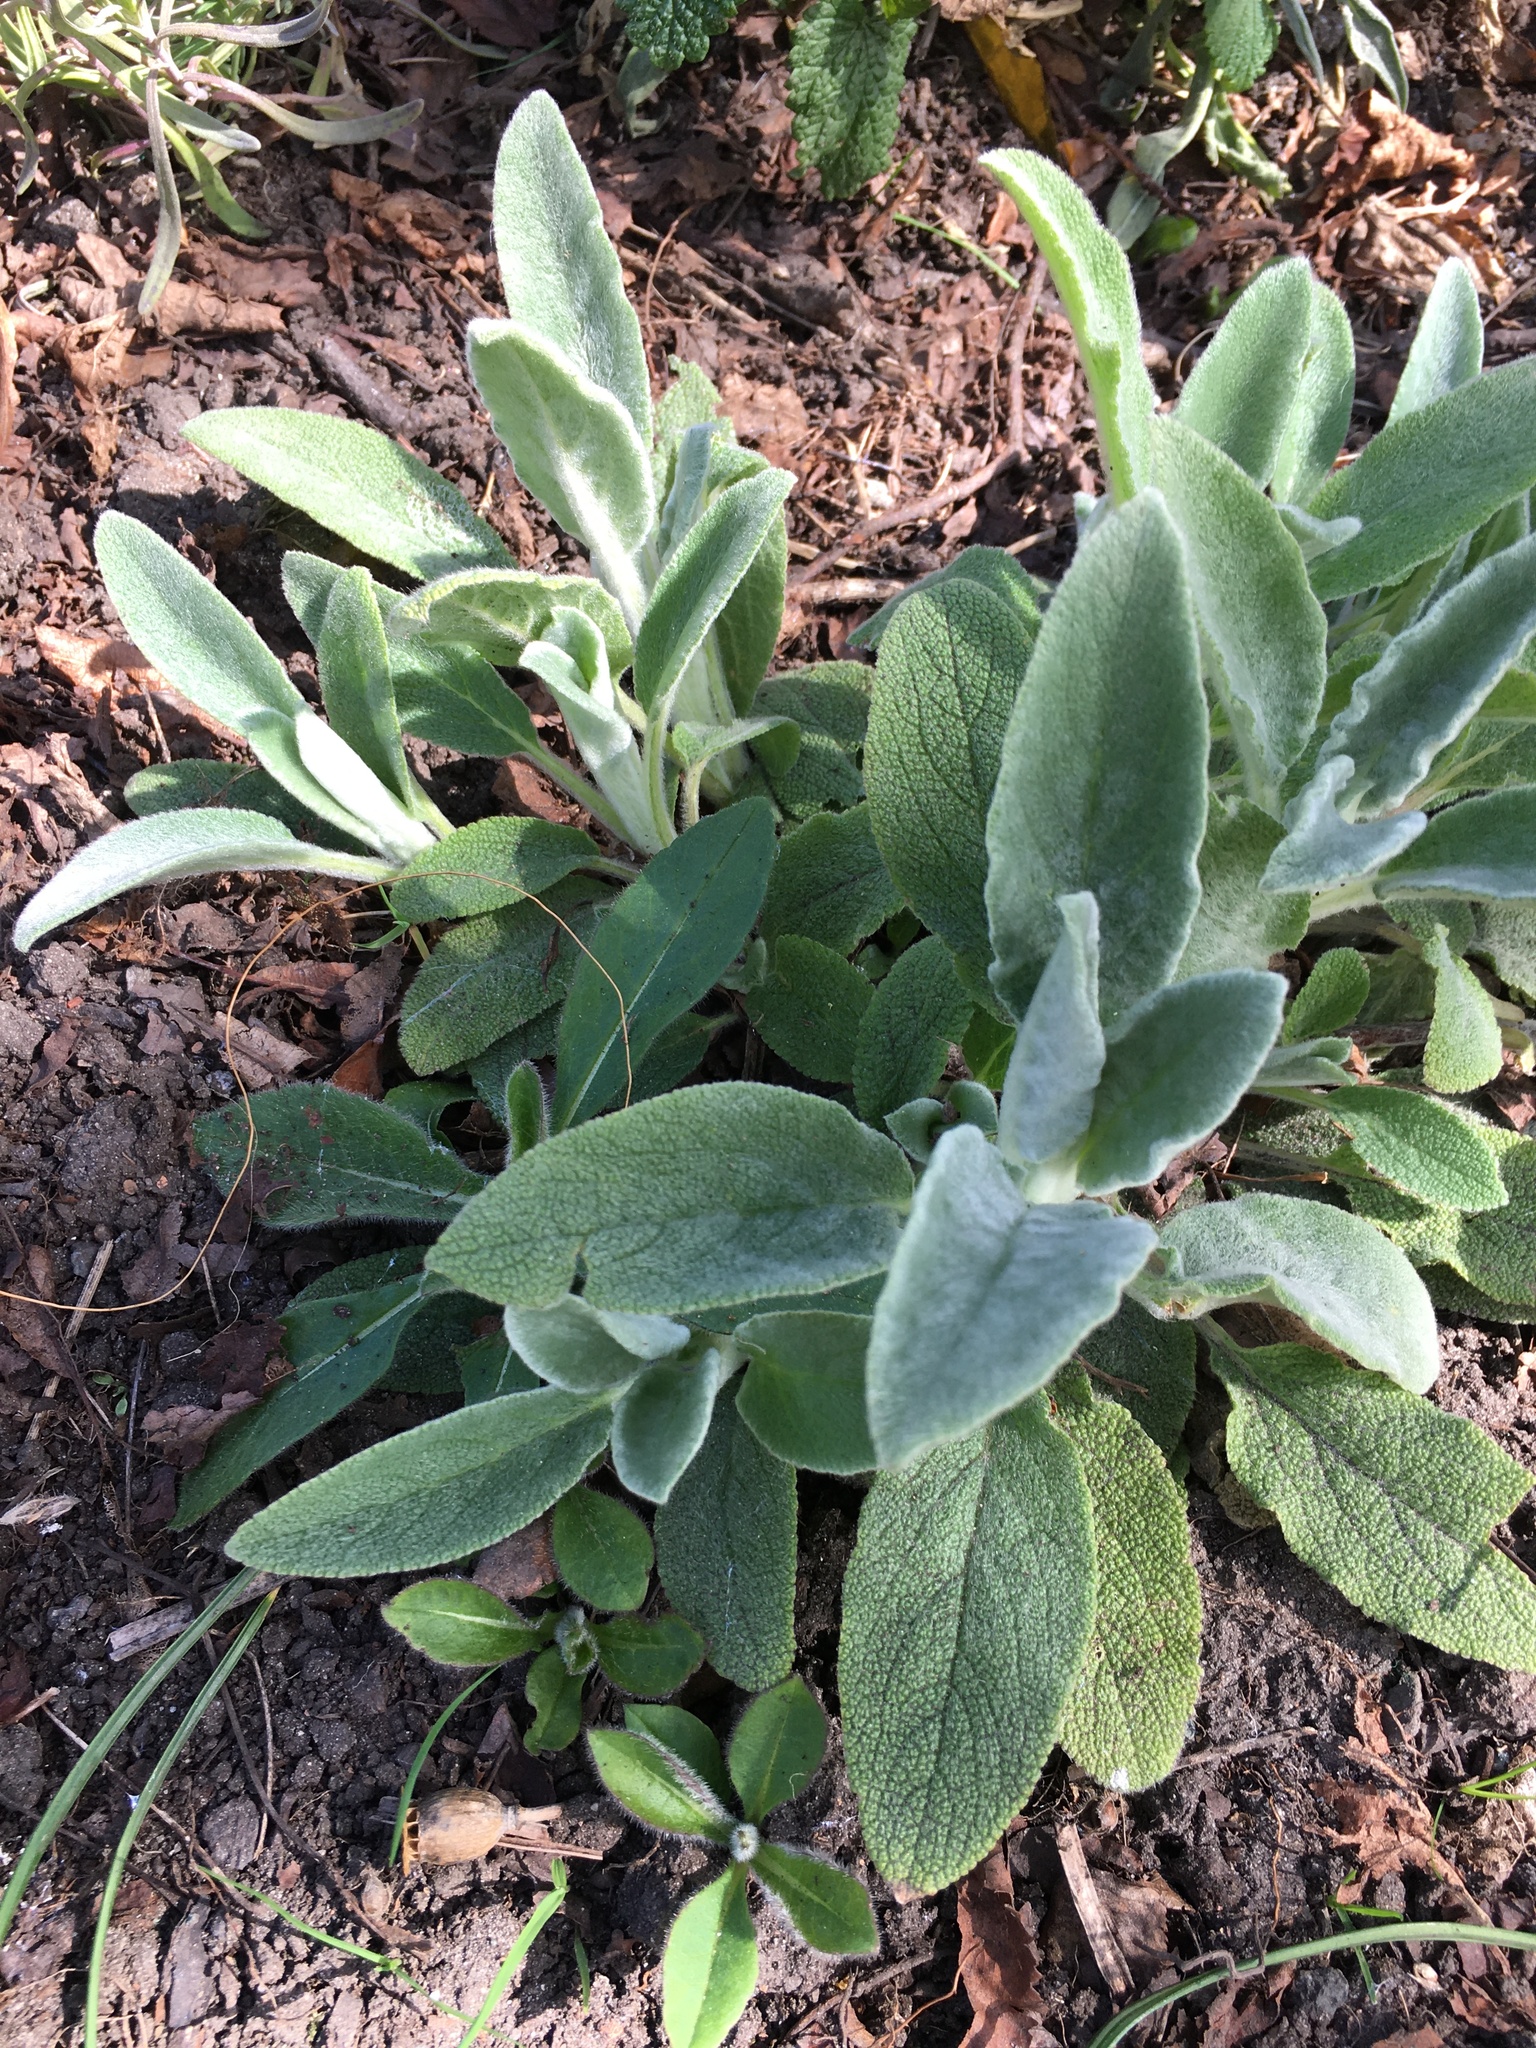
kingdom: Plantae
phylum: Tracheophyta
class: Magnoliopsida
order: Lamiales
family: Lamiaceae
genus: Stachys
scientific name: Stachys byzantina
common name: Lamb's-ear
